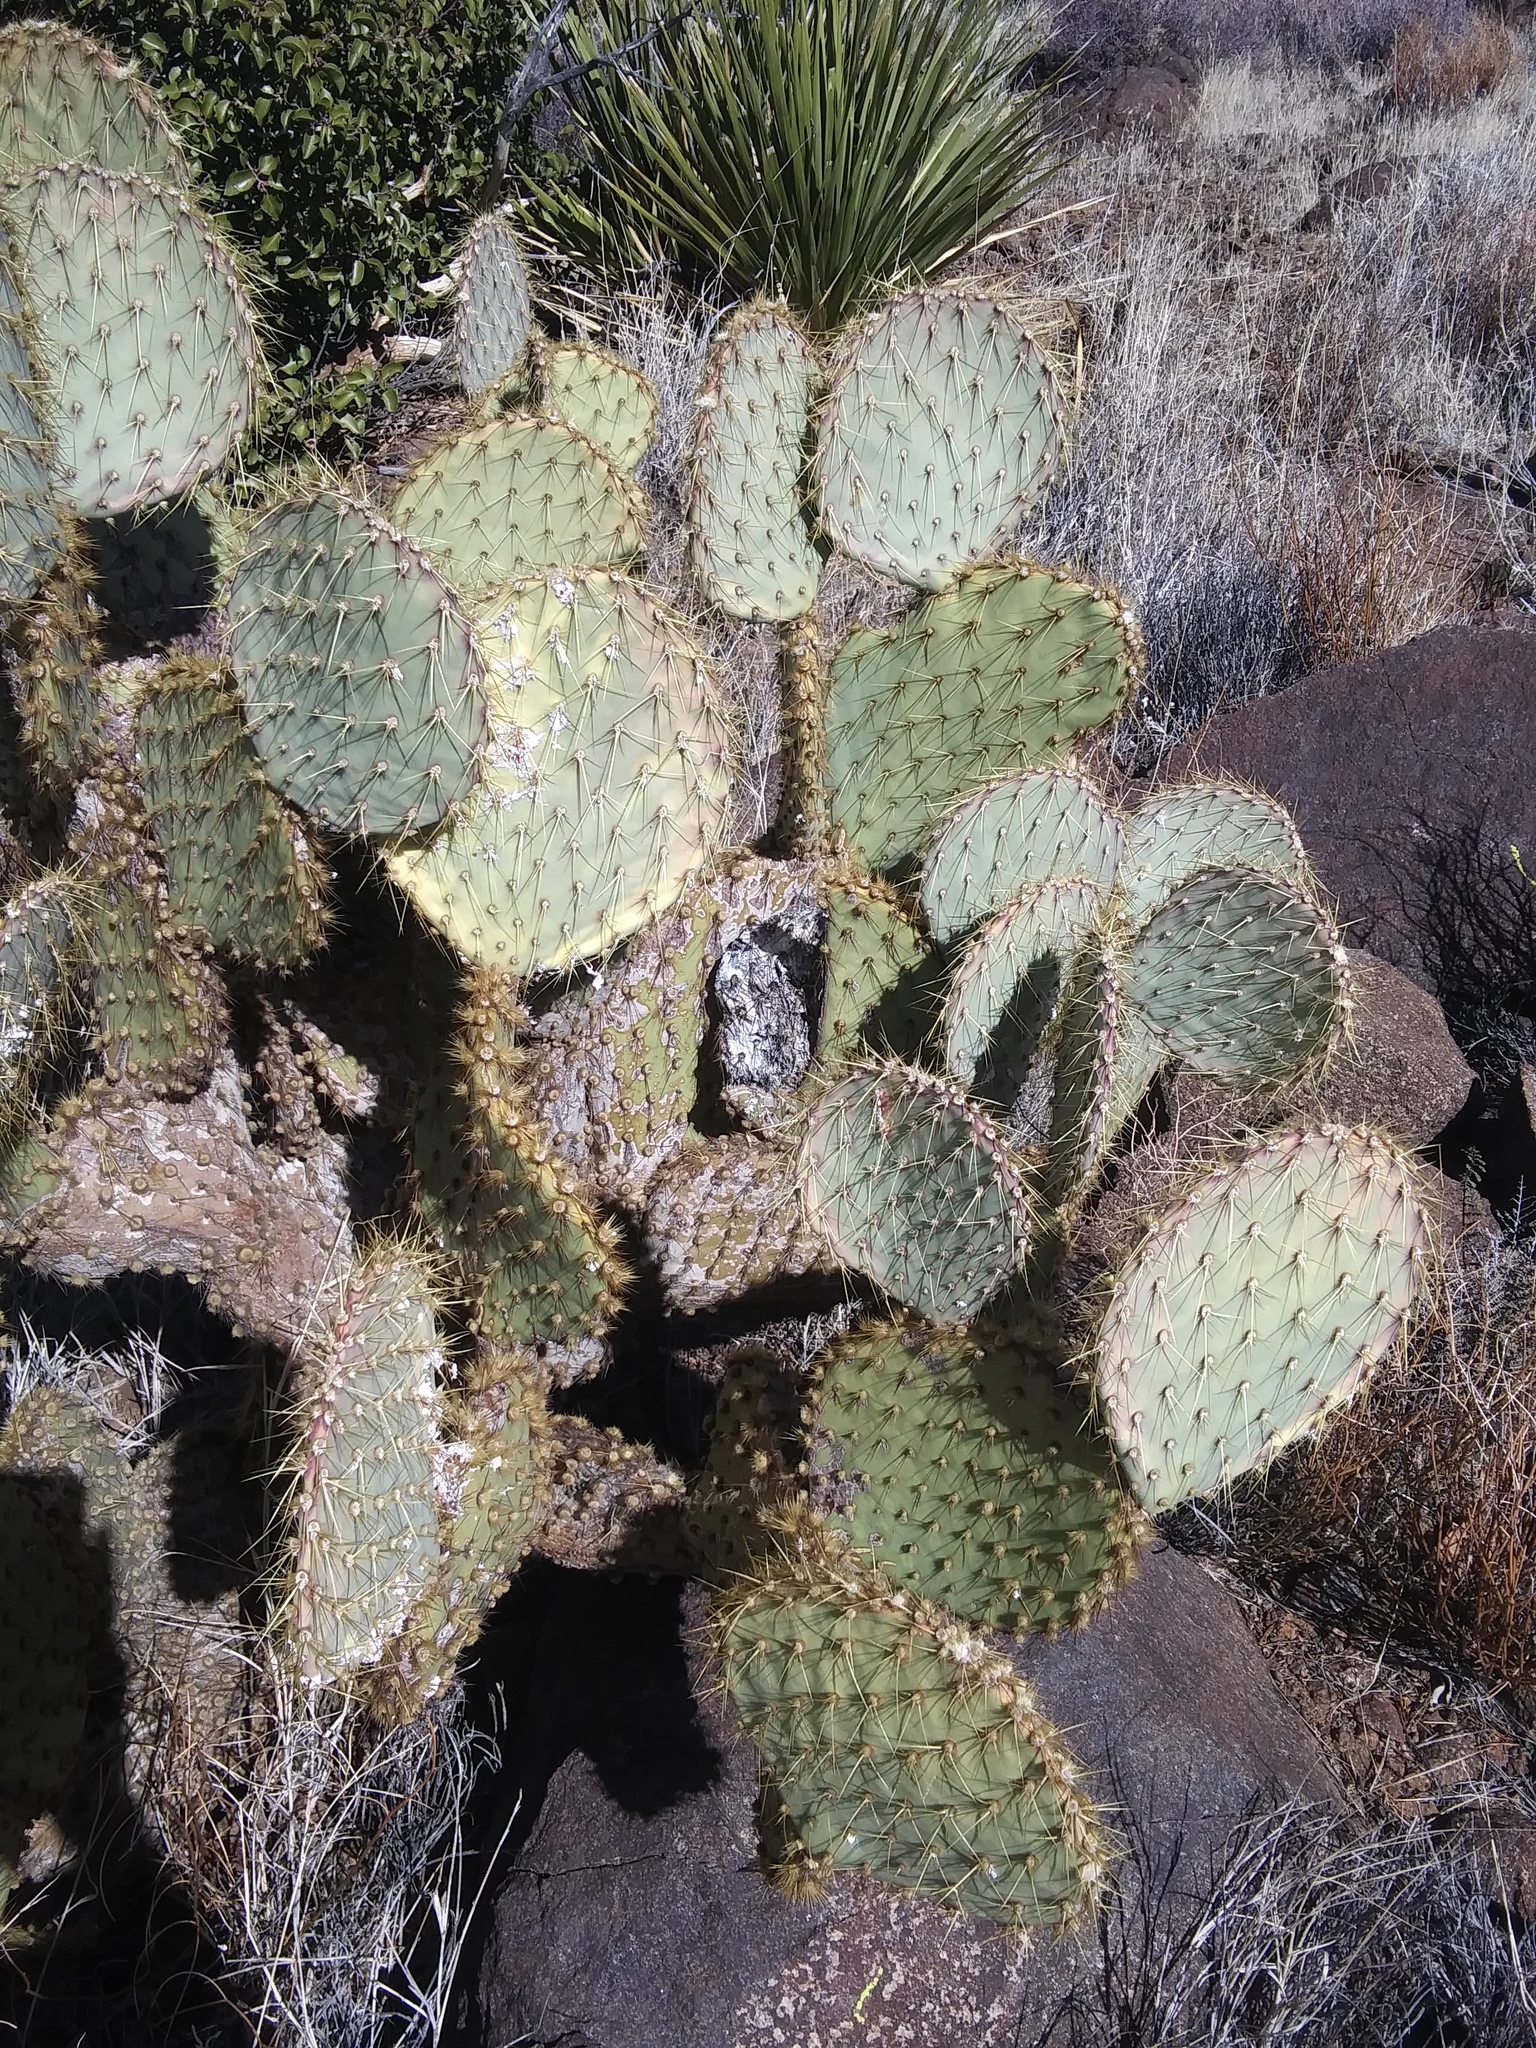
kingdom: Plantae
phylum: Tracheophyta
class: Magnoliopsida
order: Caryophyllales
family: Cactaceae
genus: Opuntia
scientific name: Opuntia chlorotica
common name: Dollar-joint prickly-pear
